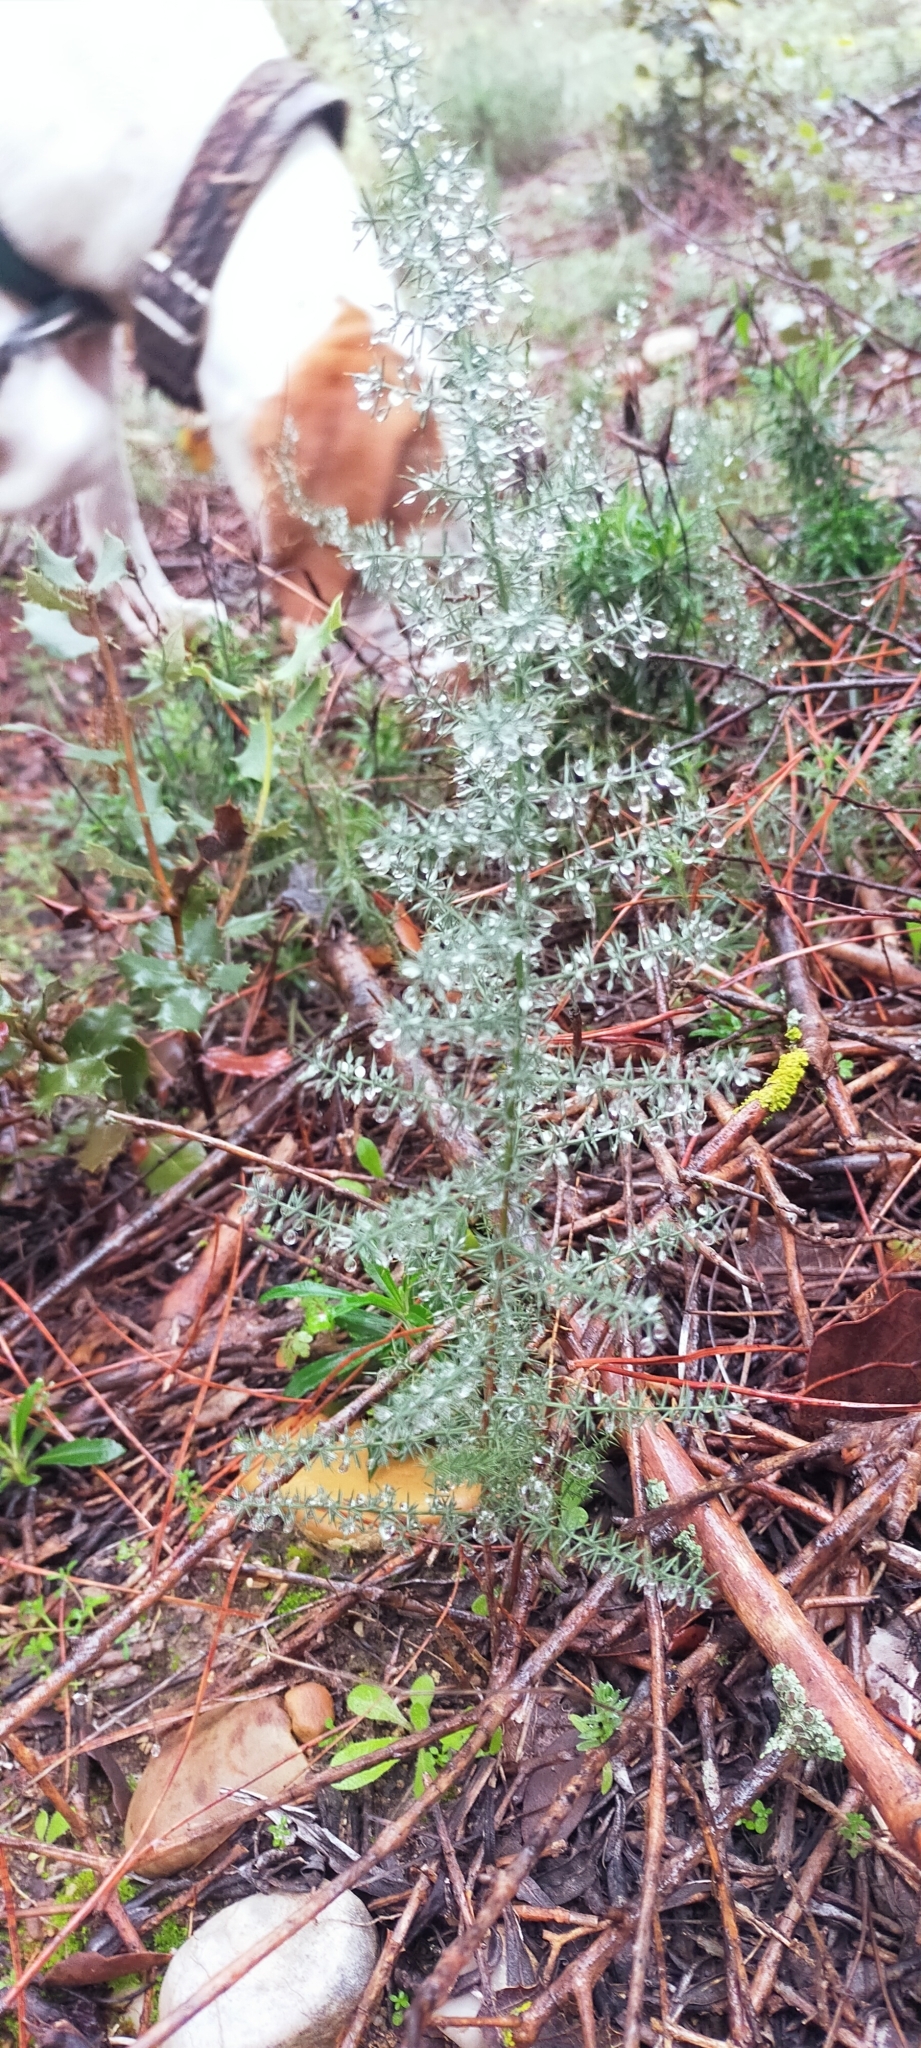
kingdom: Plantae
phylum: Tracheophyta
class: Liliopsida
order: Asparagales
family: Asparagaceae
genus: Asparagus
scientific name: Asparagus acutifolius
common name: Wild asparagus
